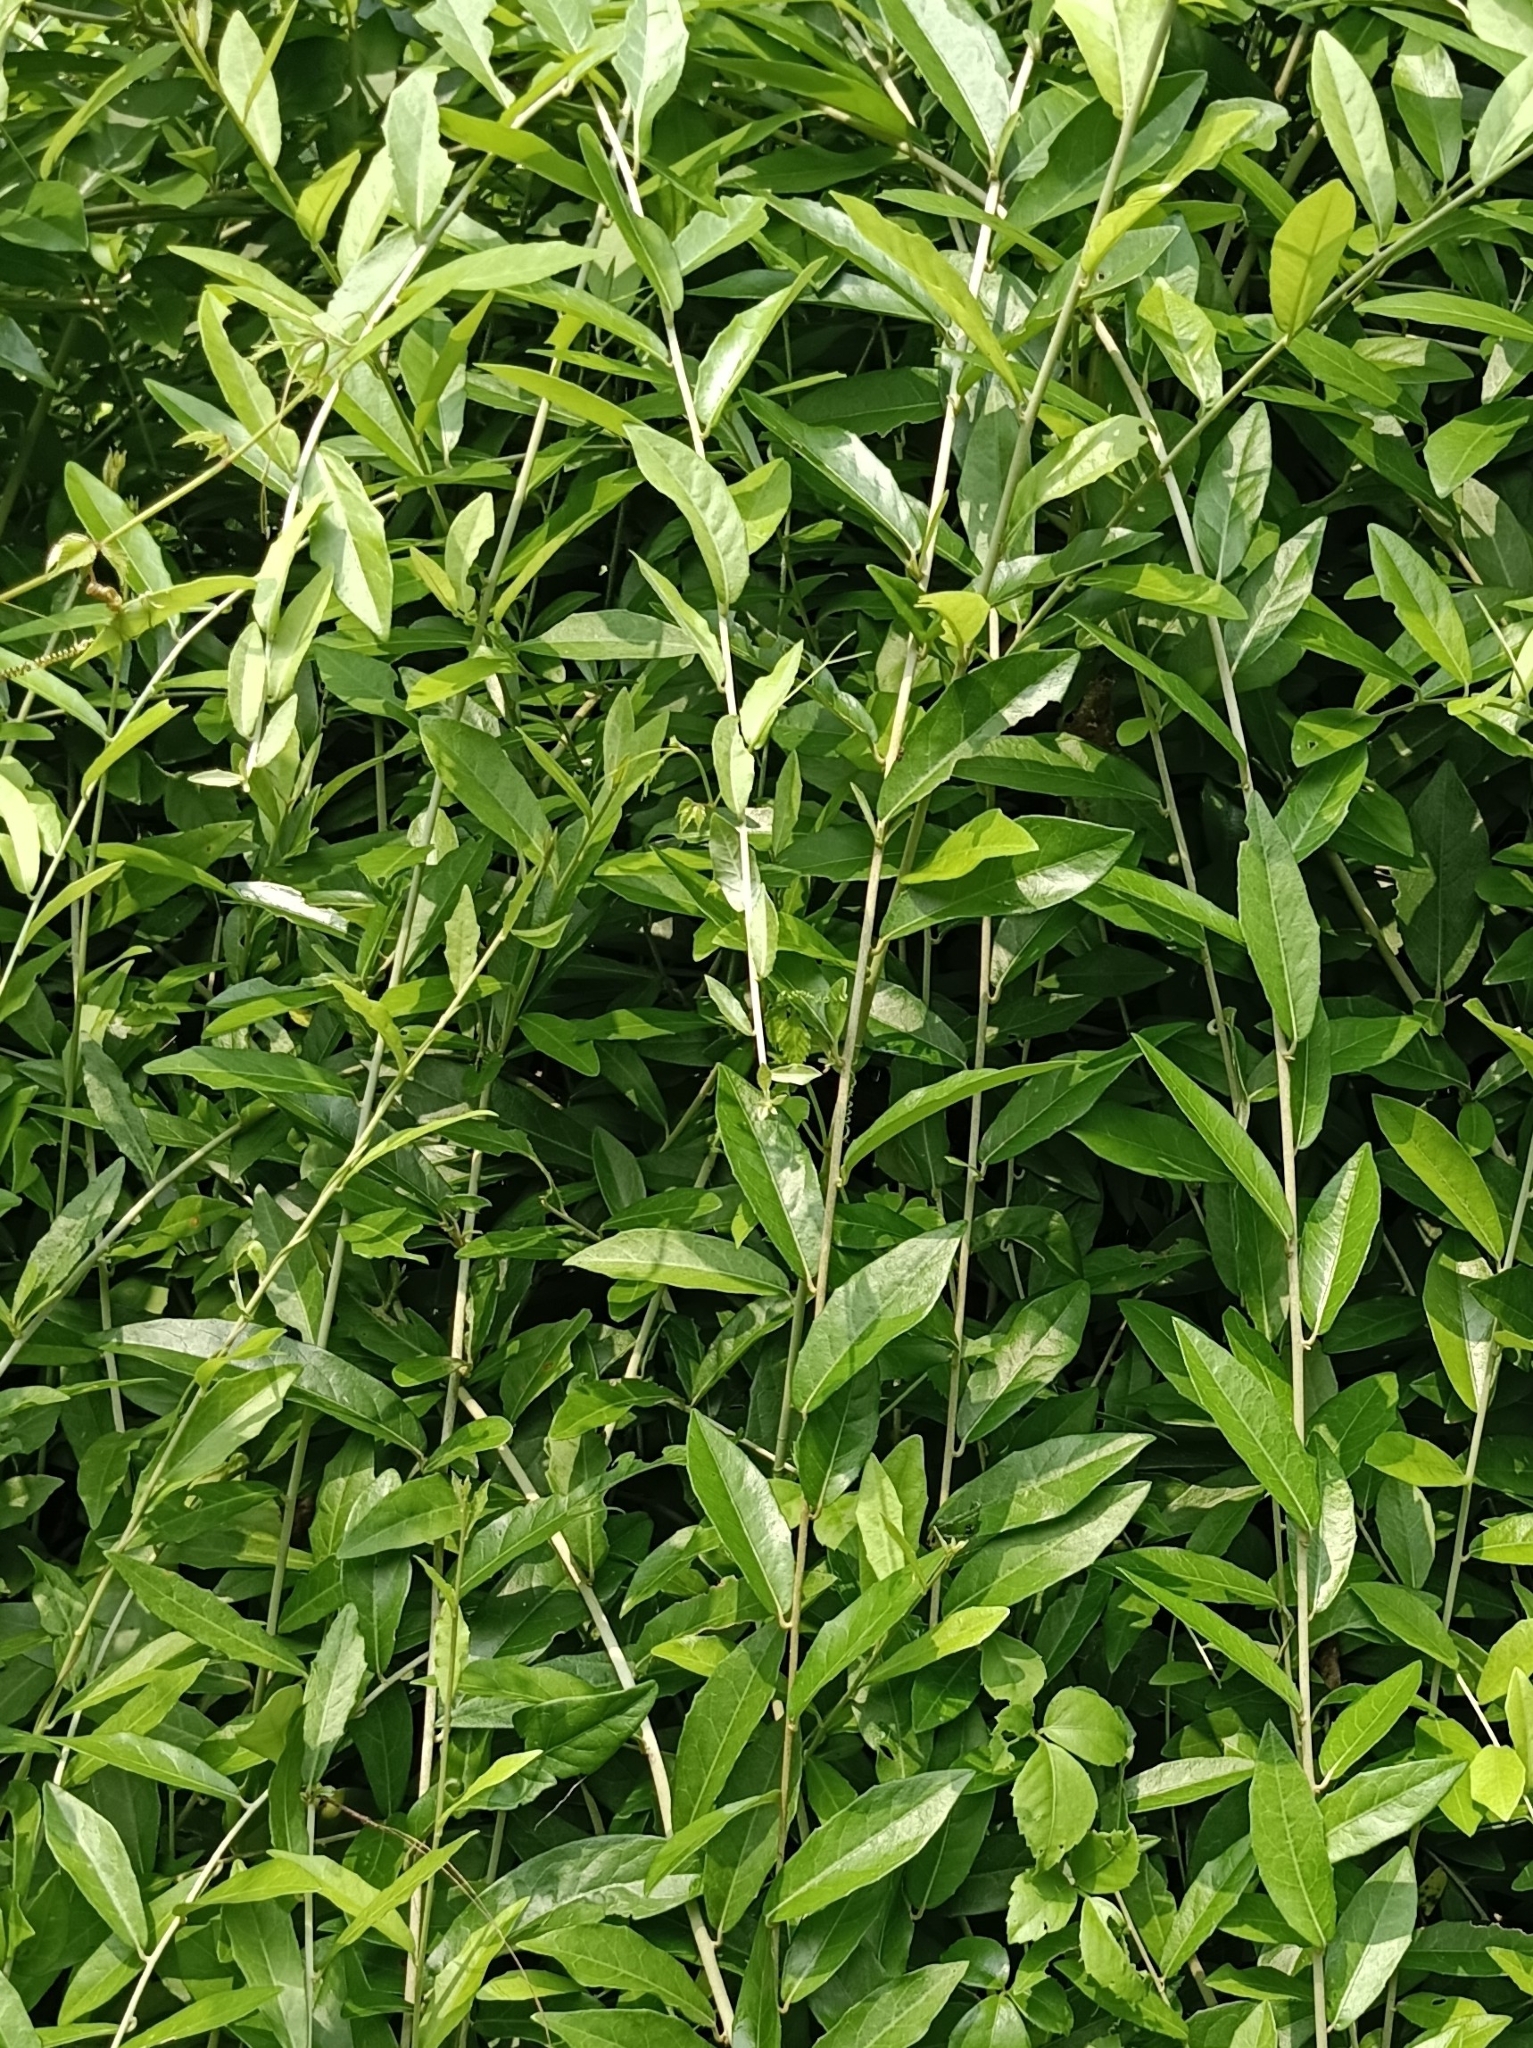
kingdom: Plantae
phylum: Tracheophyta
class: Magnoliopsida
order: Asterales
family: Asteraceae
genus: Tarlmounia
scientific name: Tarlmounia elliptica
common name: Kheua sa lot
